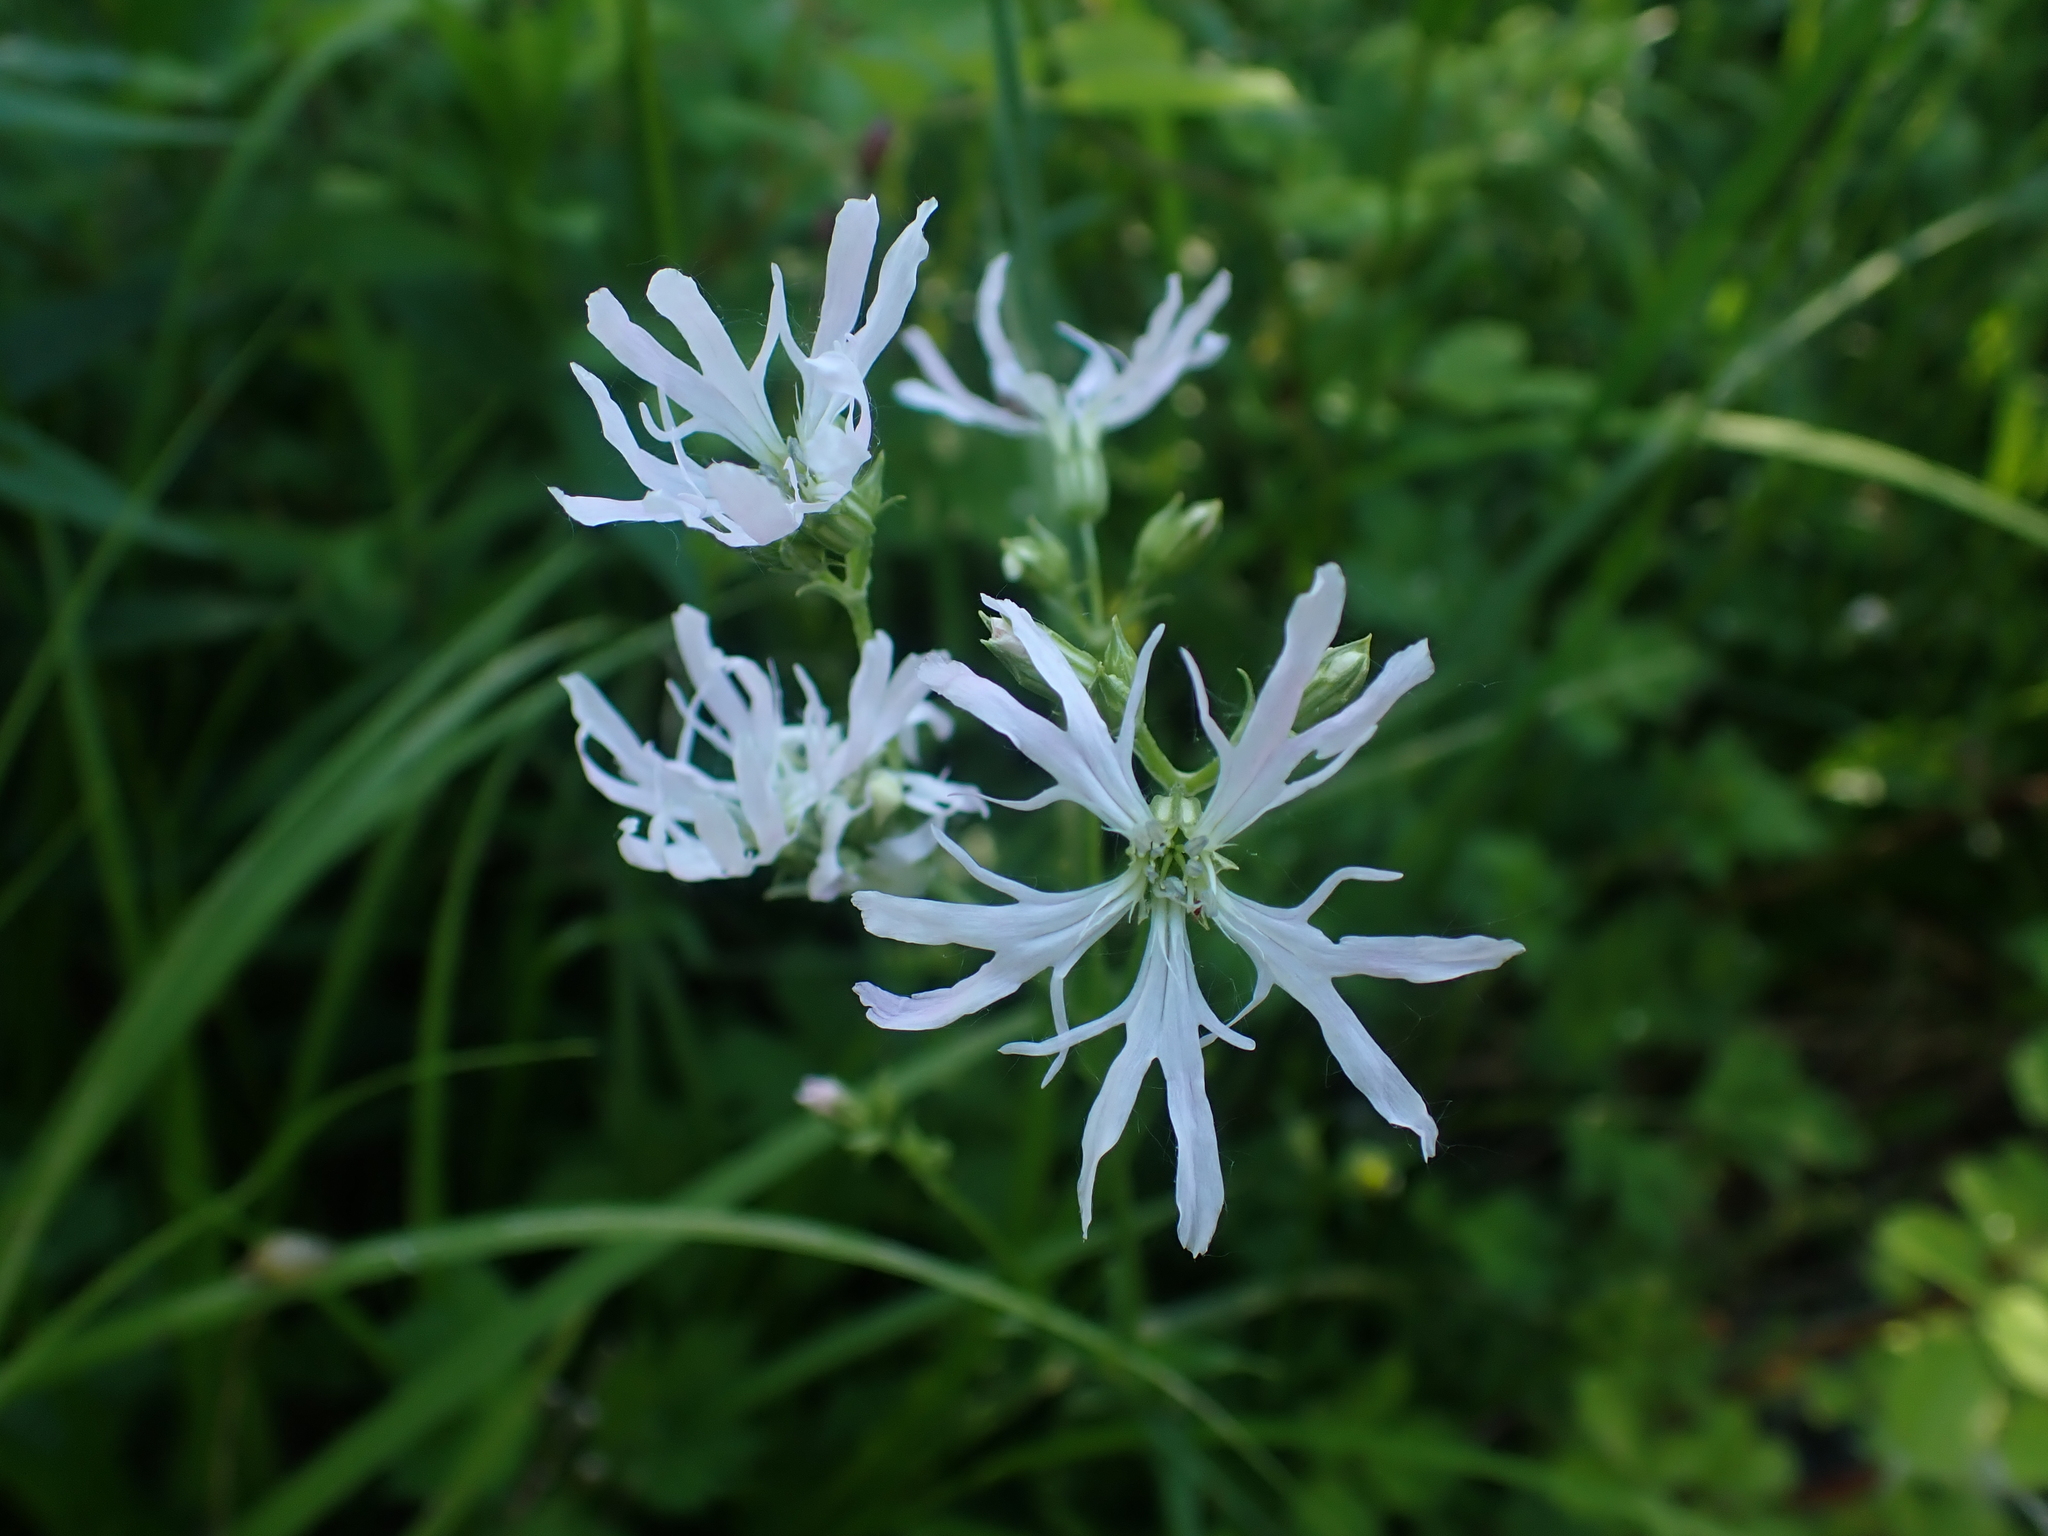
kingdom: Plantae
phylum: Tracheophyta
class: Magnoliopsida
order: Caryophyllales
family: Caryophyllaceae
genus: Silene
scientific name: Silene flos-cuculi
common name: Ragged-robin
